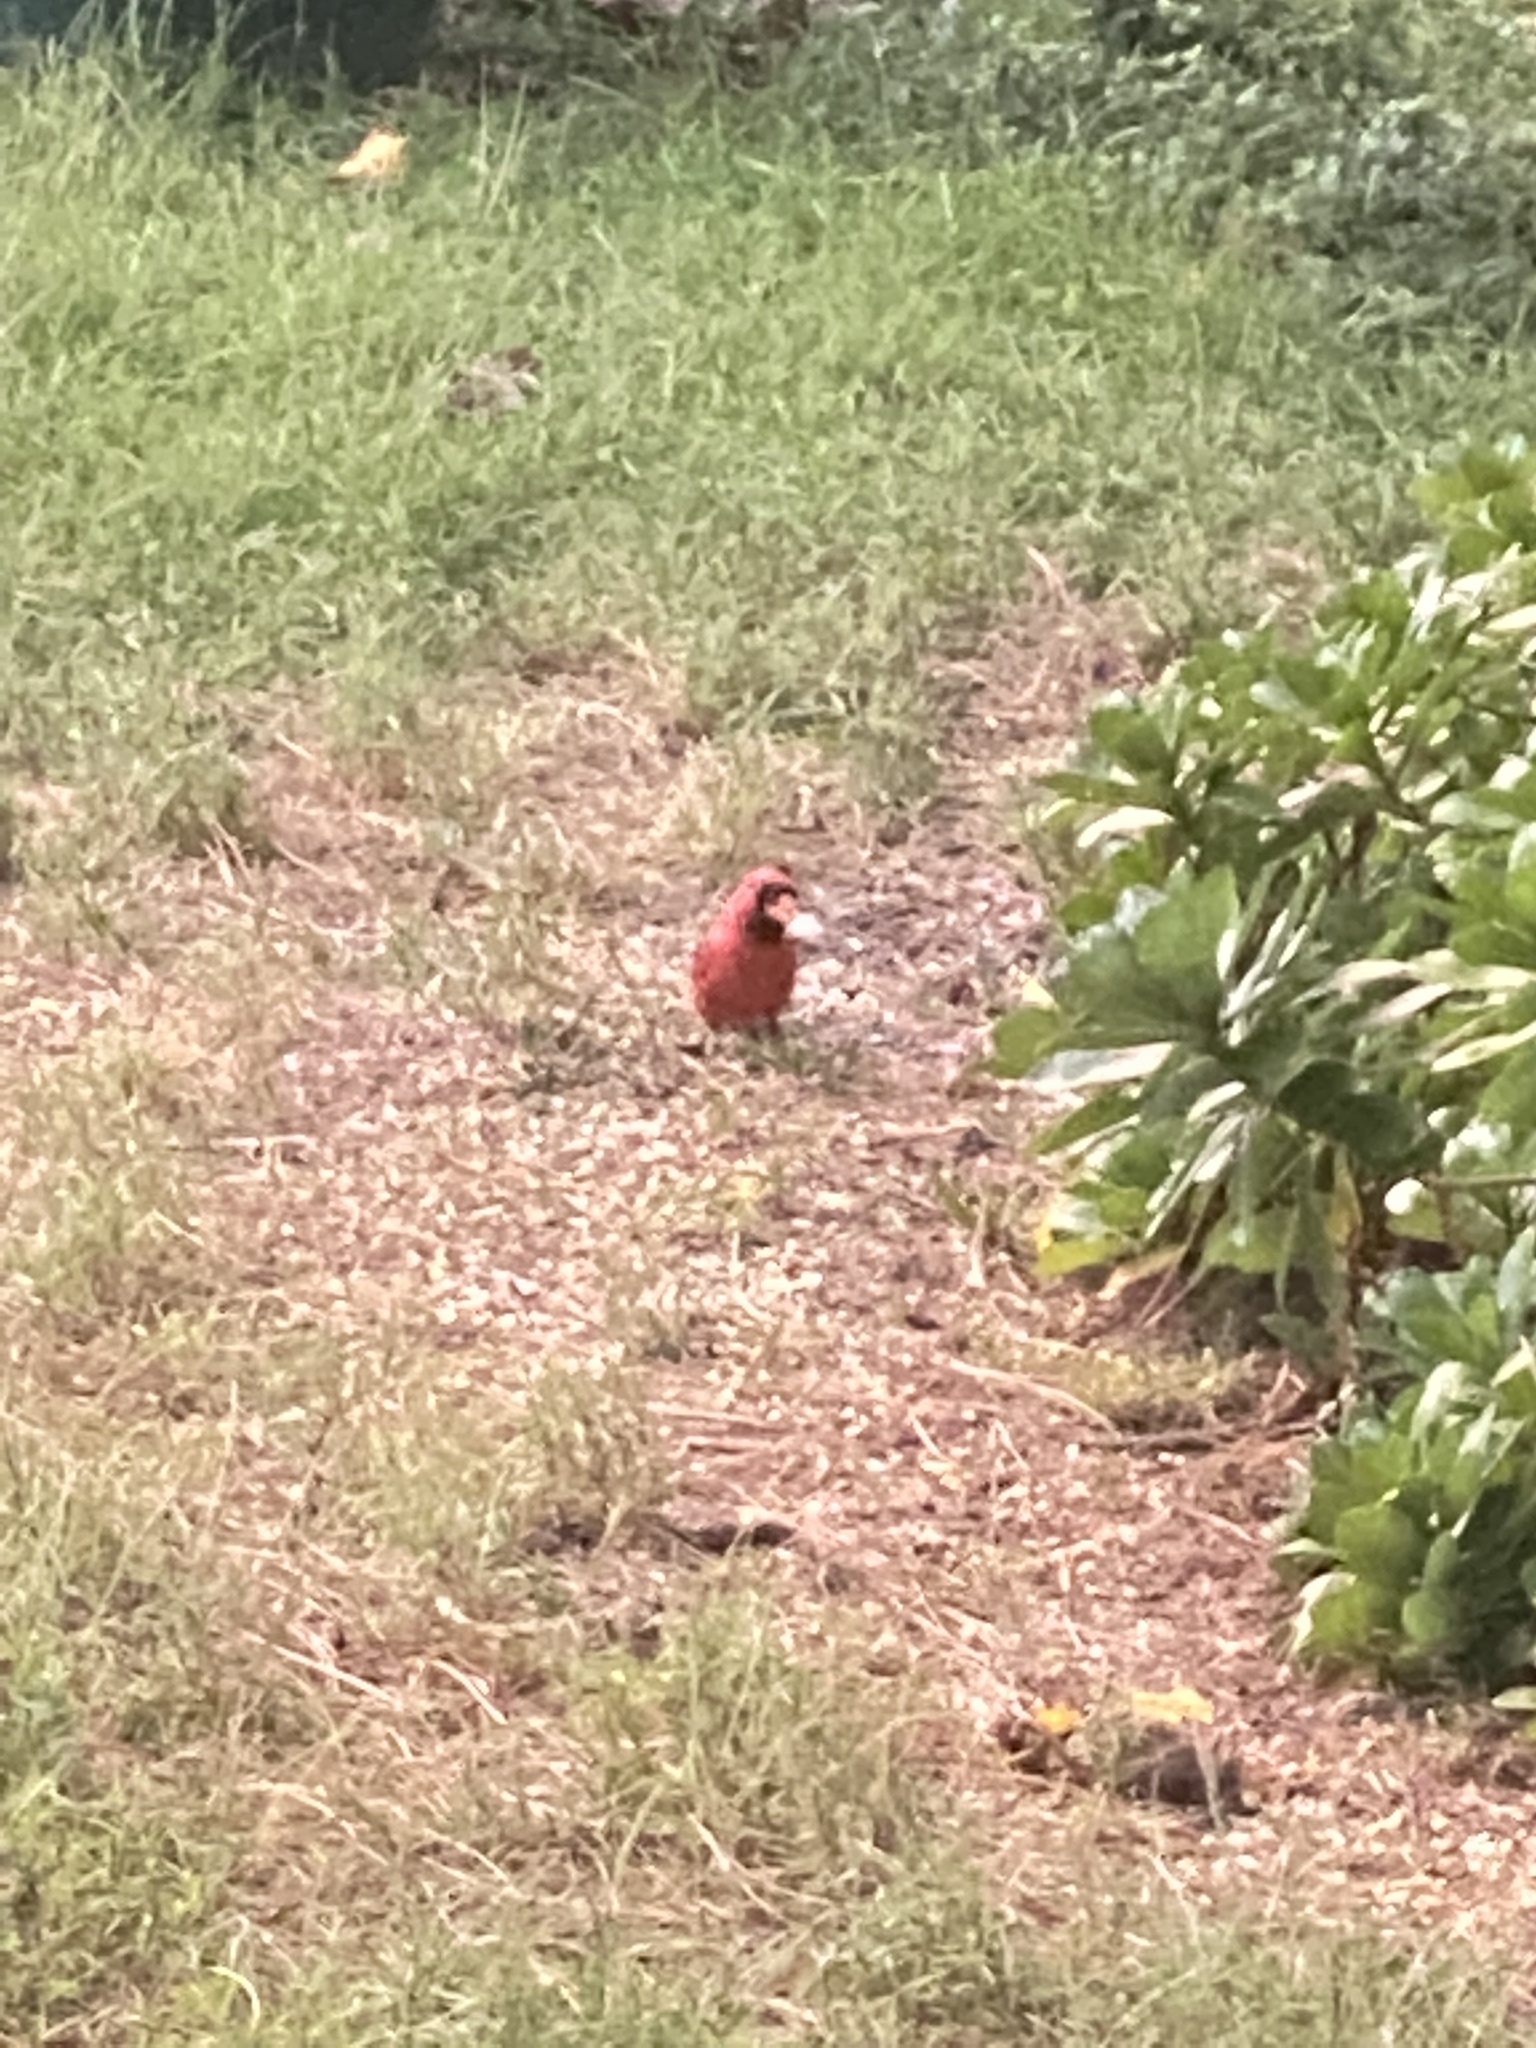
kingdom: Animalia
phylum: Chordata
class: Aves
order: Passeriformes
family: Cardinalidae
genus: Cardinalis
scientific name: Cardinalis cardinalis
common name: Northern cardinal
